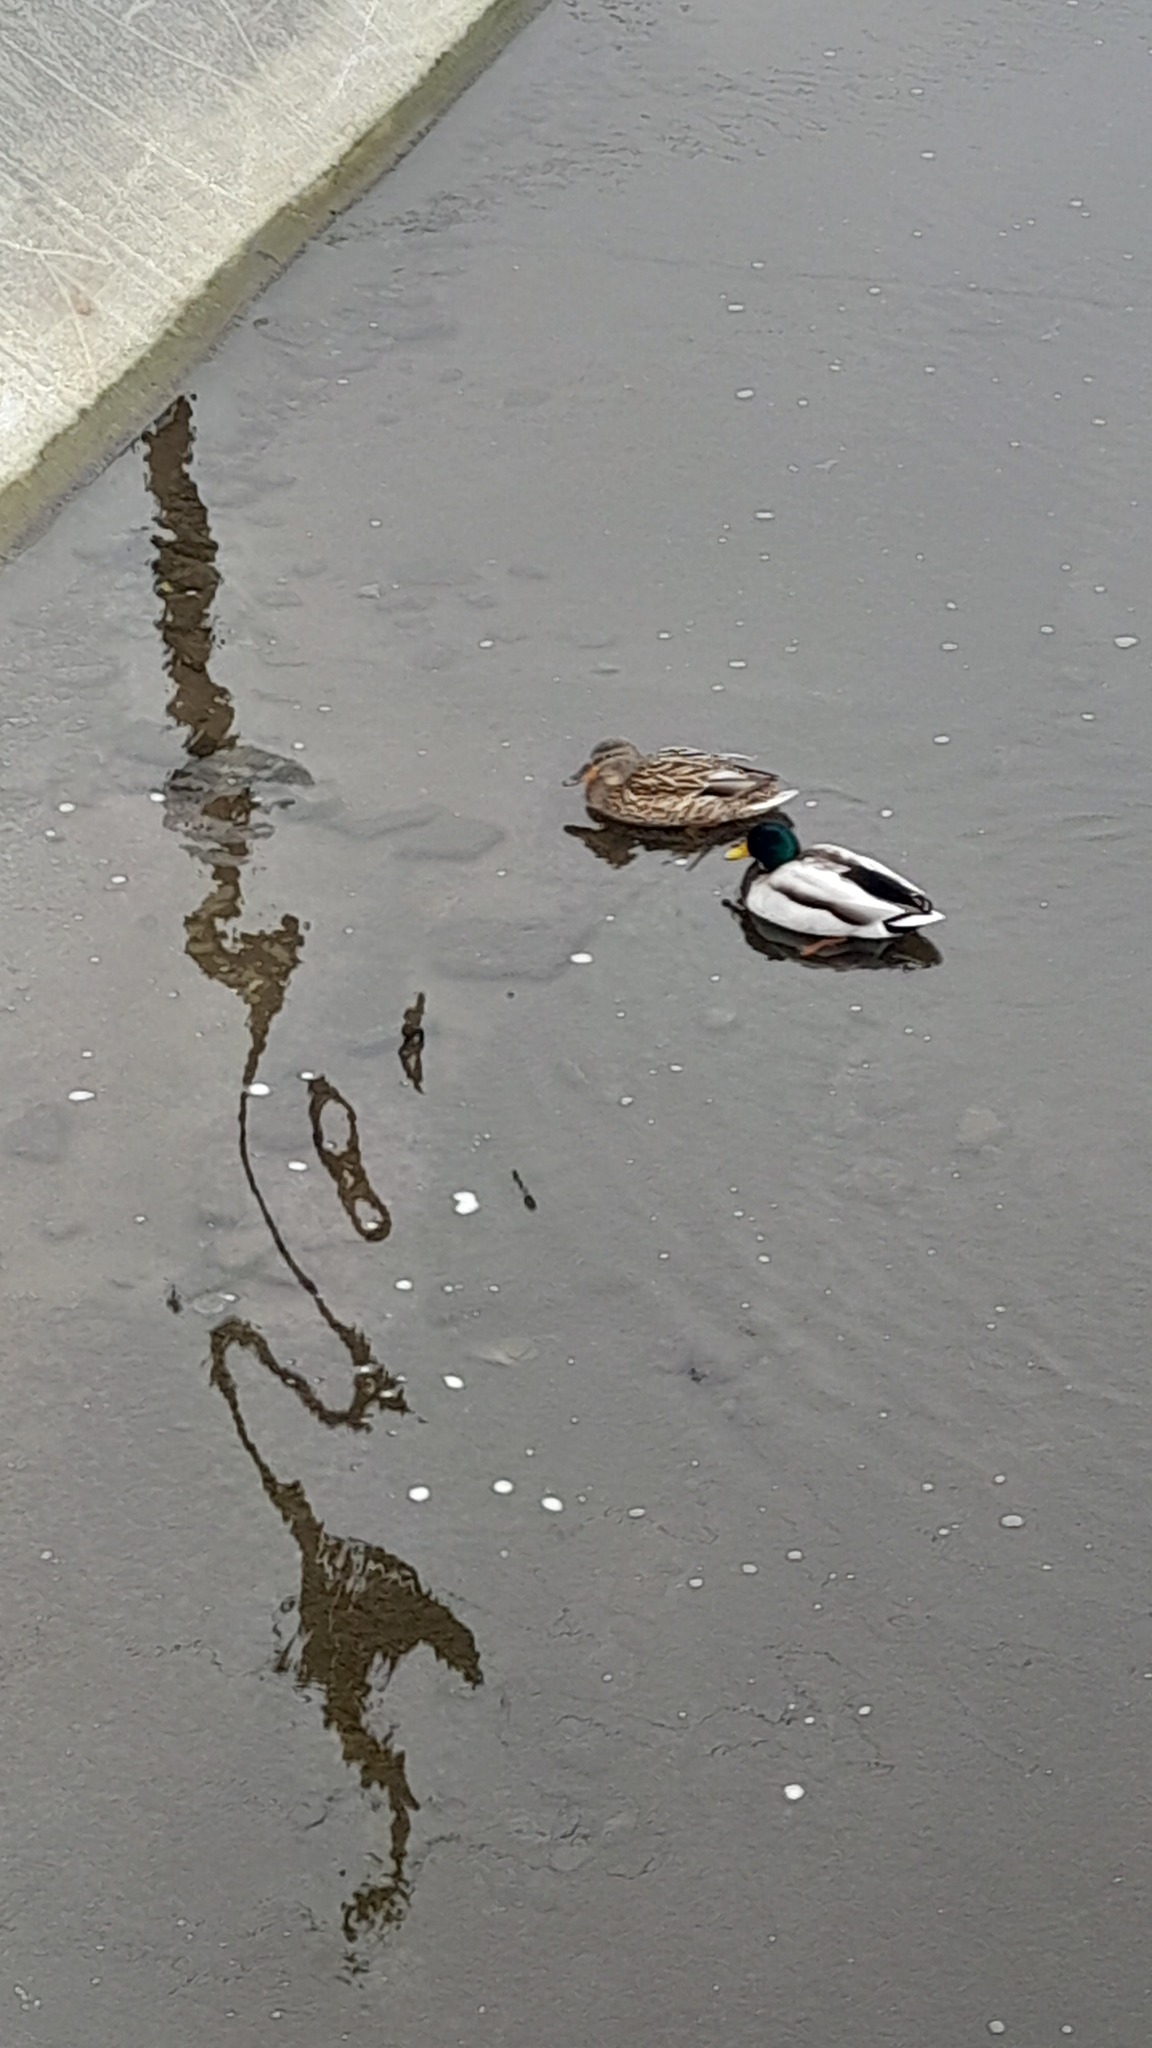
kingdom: Animalia
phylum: Chordata
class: Aves
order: Anseriformes
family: Anatidae
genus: Anas
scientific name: Anas platyrhynchos
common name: Mallard
